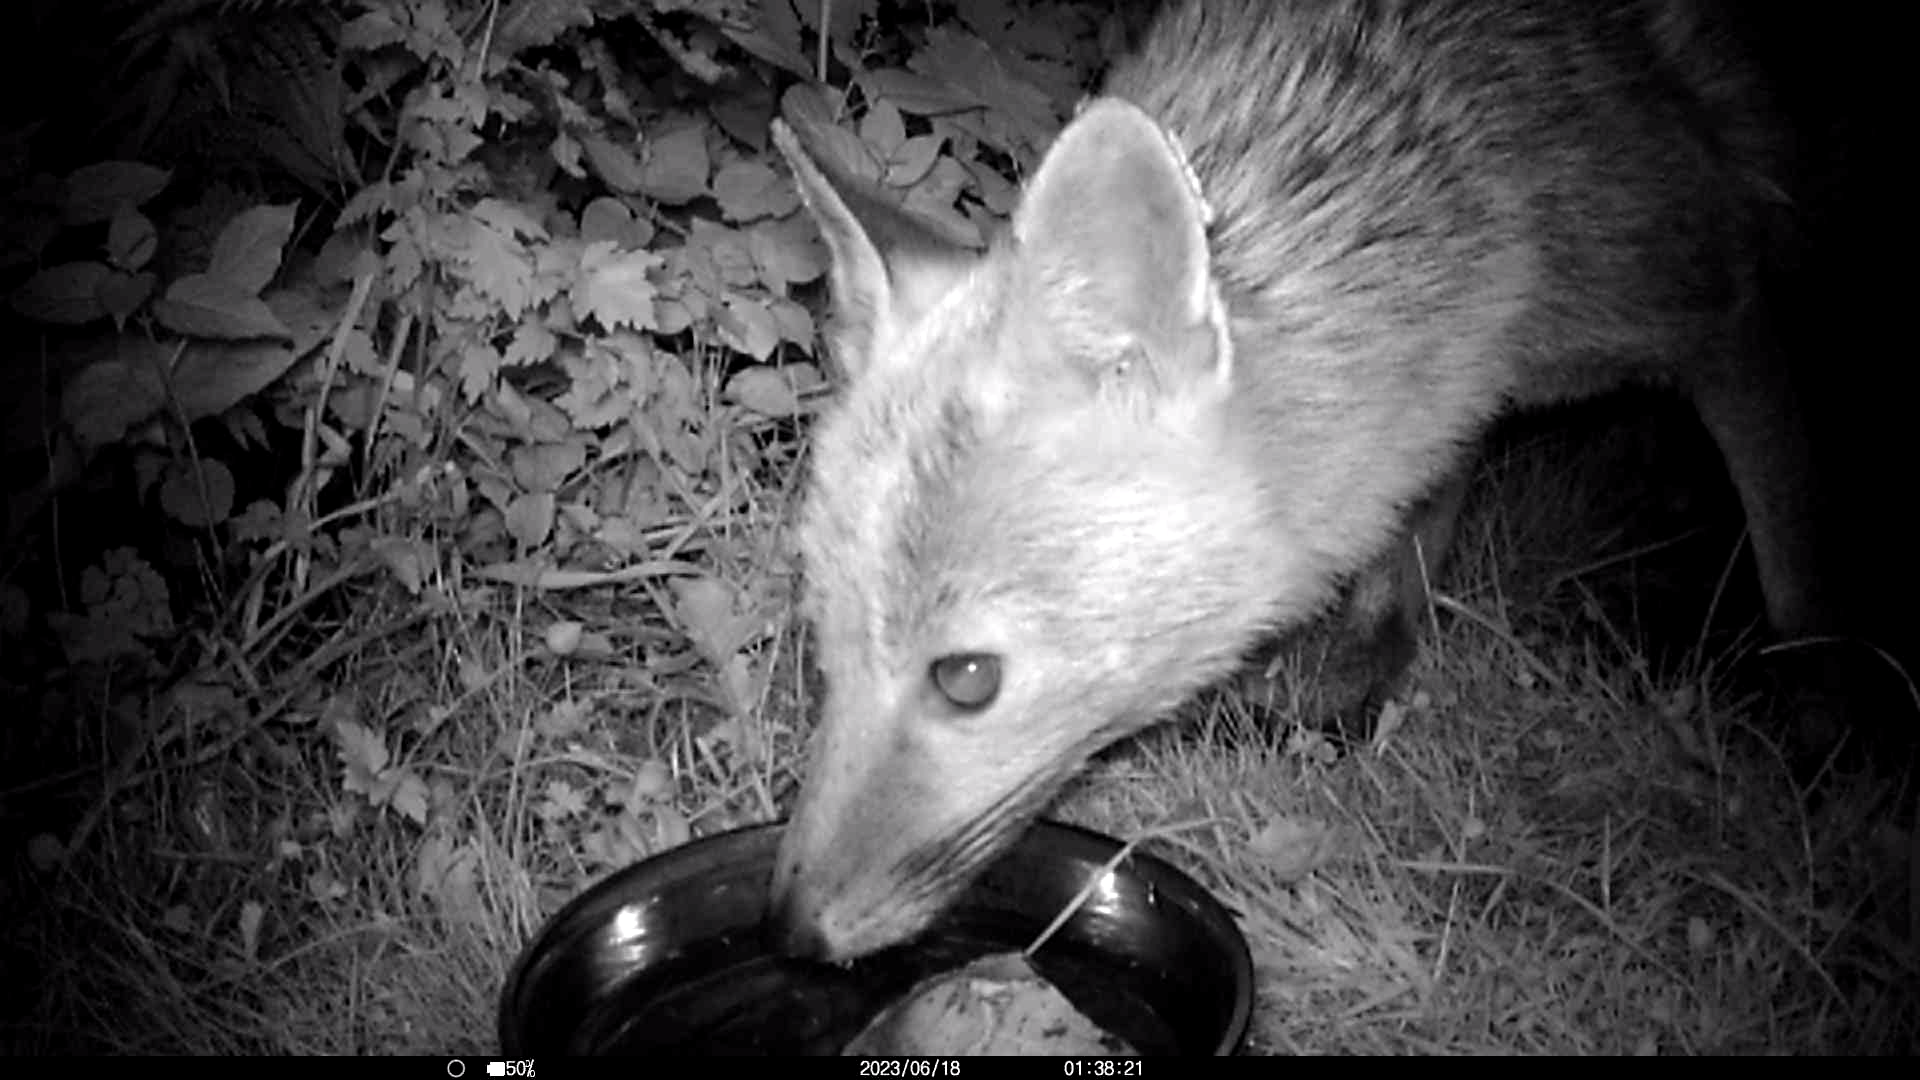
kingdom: Animalia
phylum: Chordata
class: Mammalia
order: Carnivora
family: Canidae
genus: Vulpes
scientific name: Vulpes vulpes
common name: Red fox
